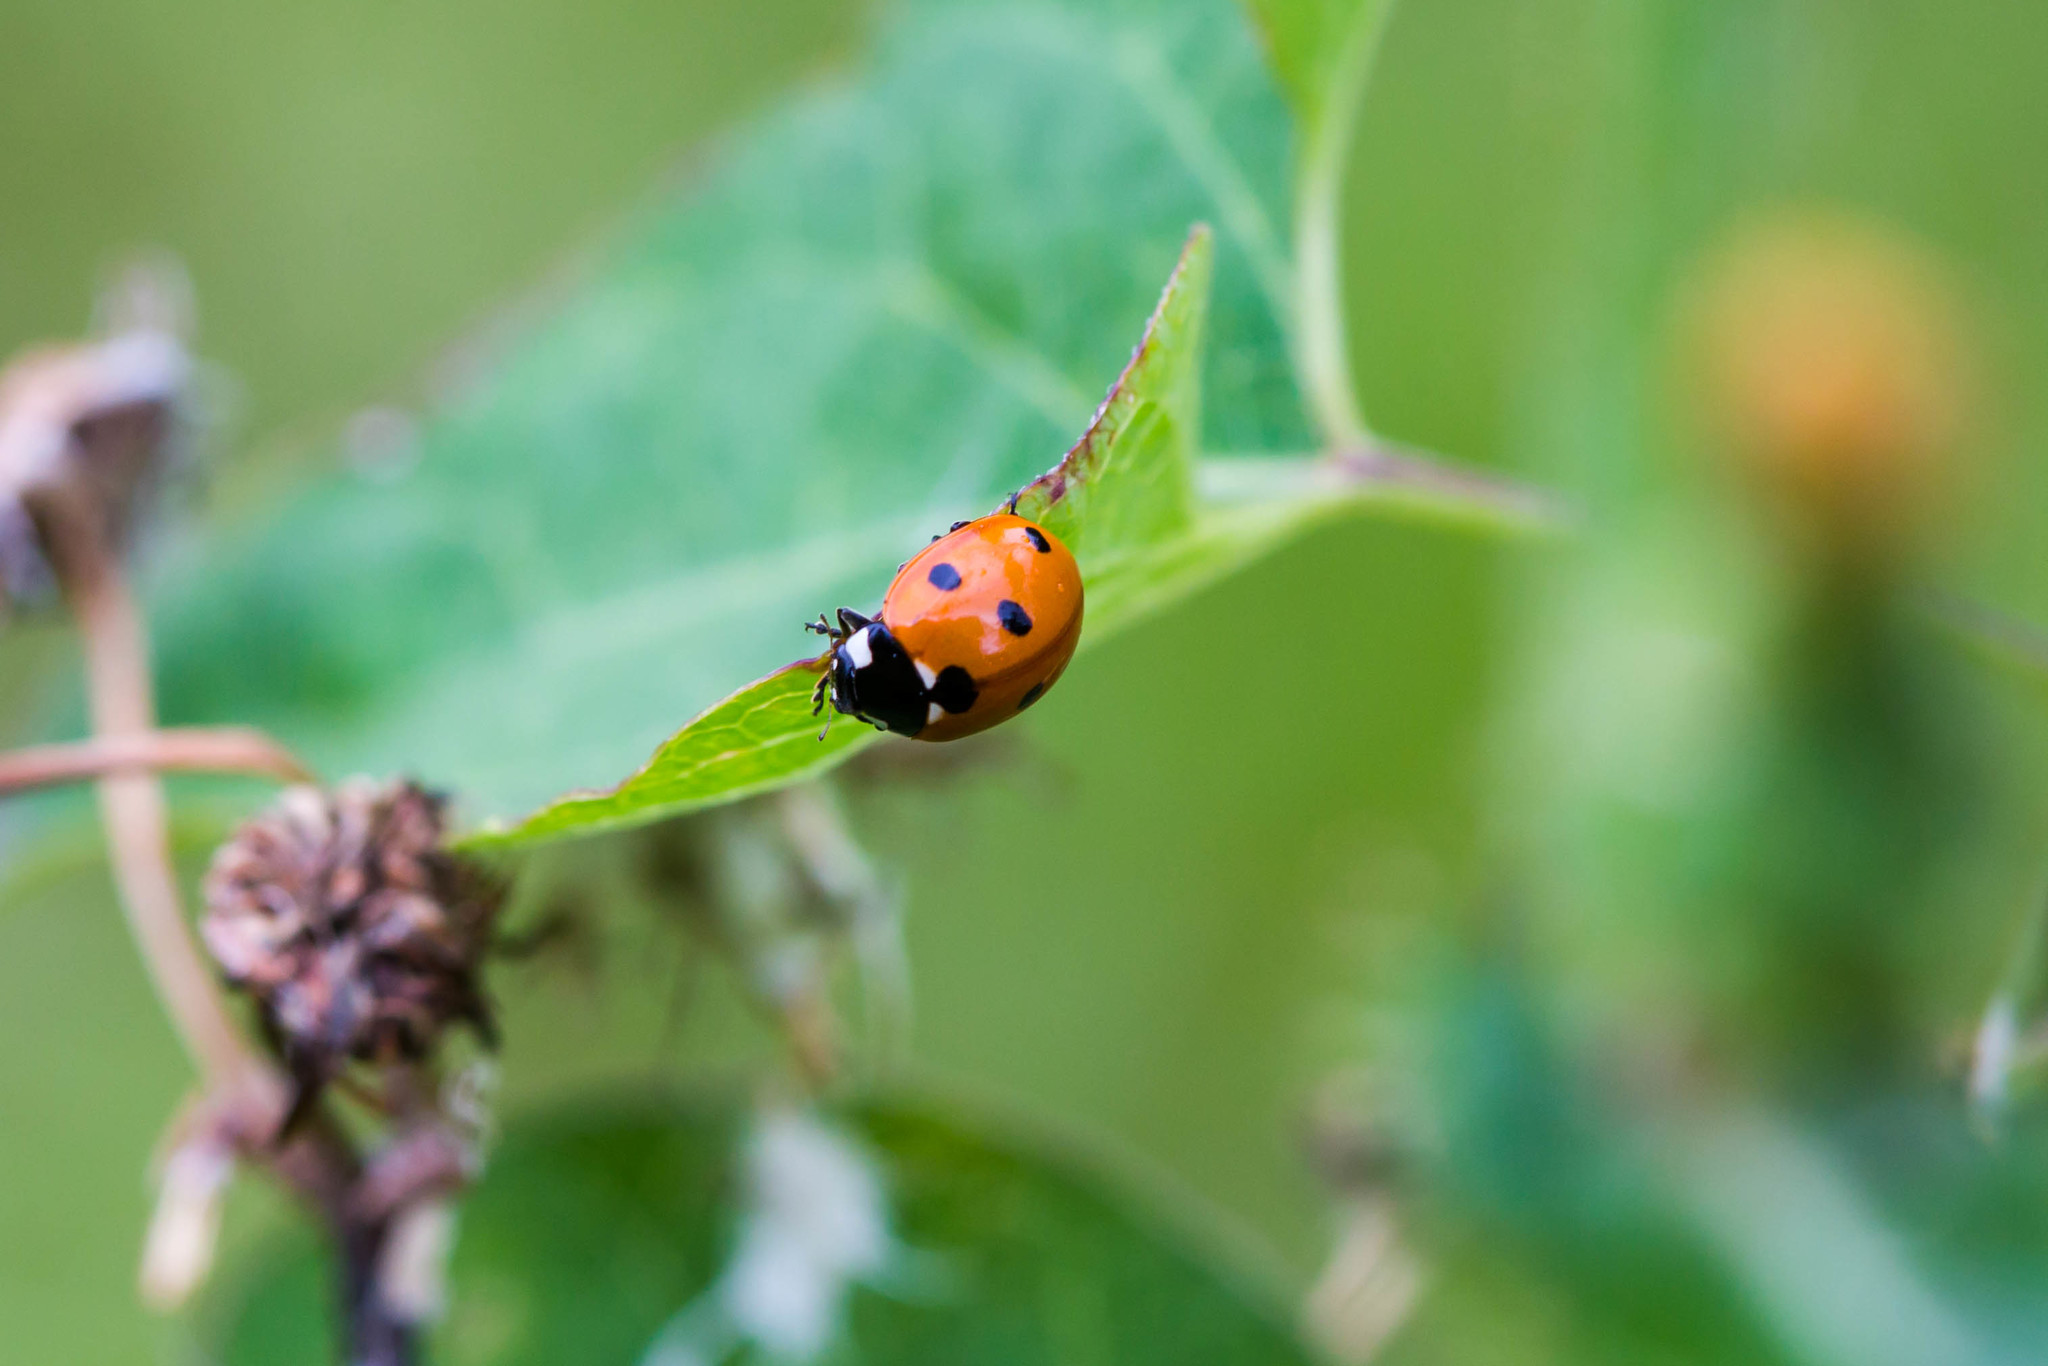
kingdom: Animalia
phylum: Arthropoda
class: Insecta
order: Coleoptera
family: Coccinellidae
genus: Coccinella
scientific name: Coccinella septempunctata
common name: Sevenspotted lady beetle
